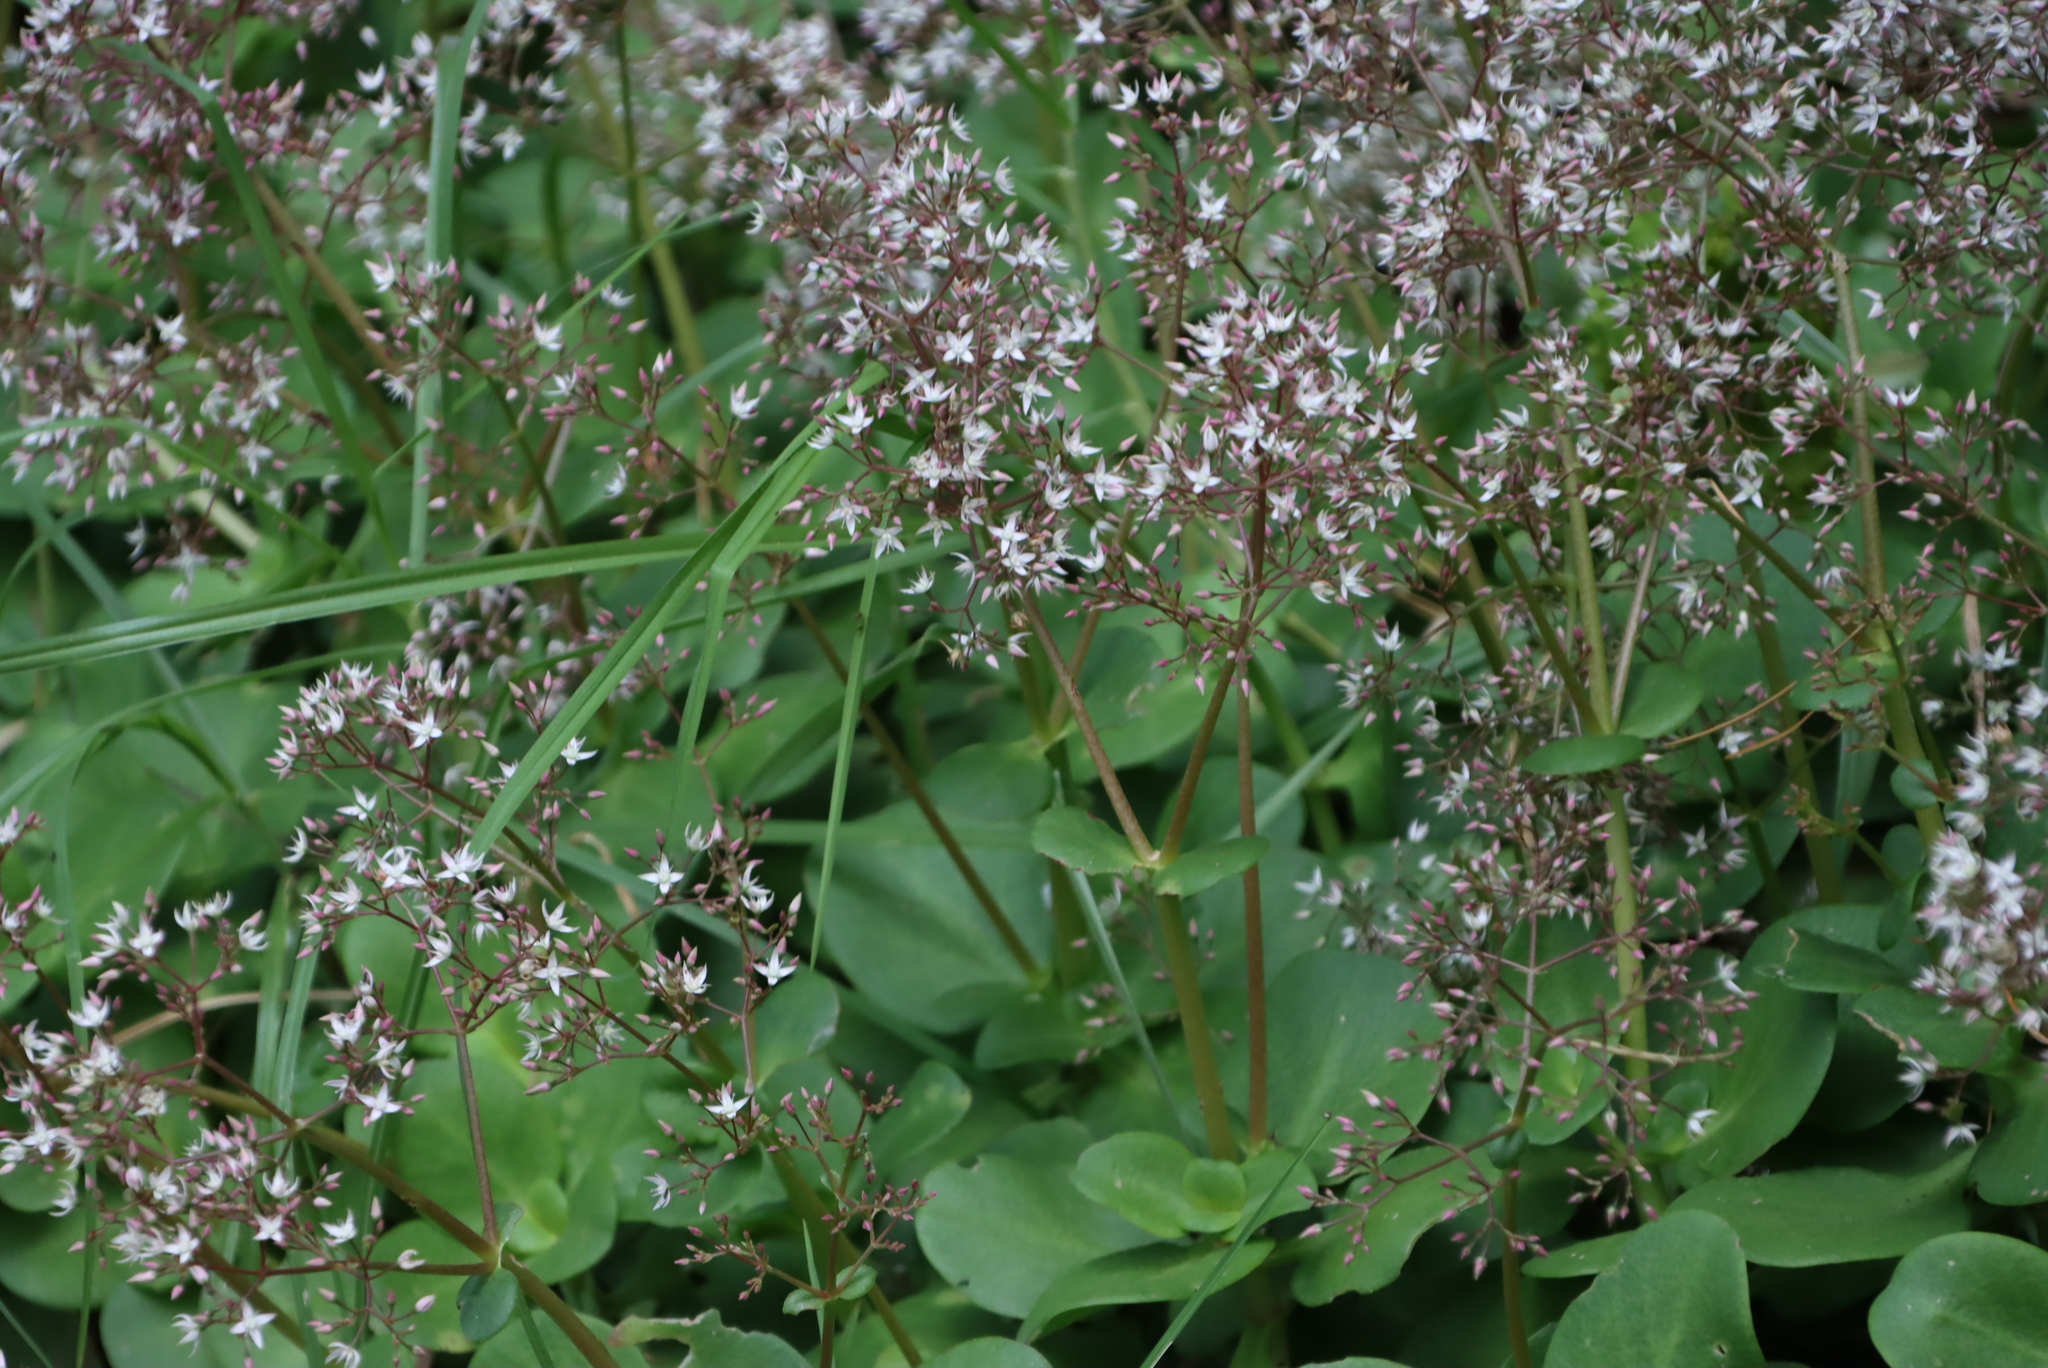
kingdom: Plantae
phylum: Tracheophyta
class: Magnoliopsida
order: Saxifragales
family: Crassulaceae
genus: Crassula
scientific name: Crassula multicava
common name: Cape province pygmyweed
